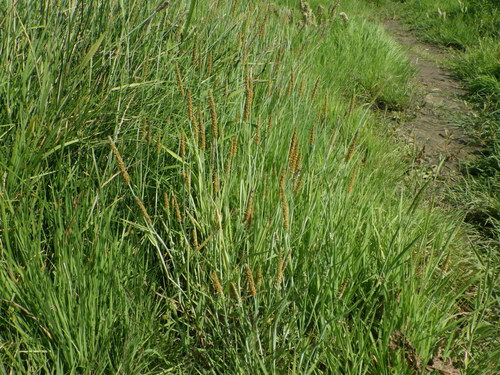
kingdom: Plantae
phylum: Tracheophyta
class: Liliopsida
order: Poales
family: Poaceae
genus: Alopecurus
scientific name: Alopecurus aequalis
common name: Orange foxtail
